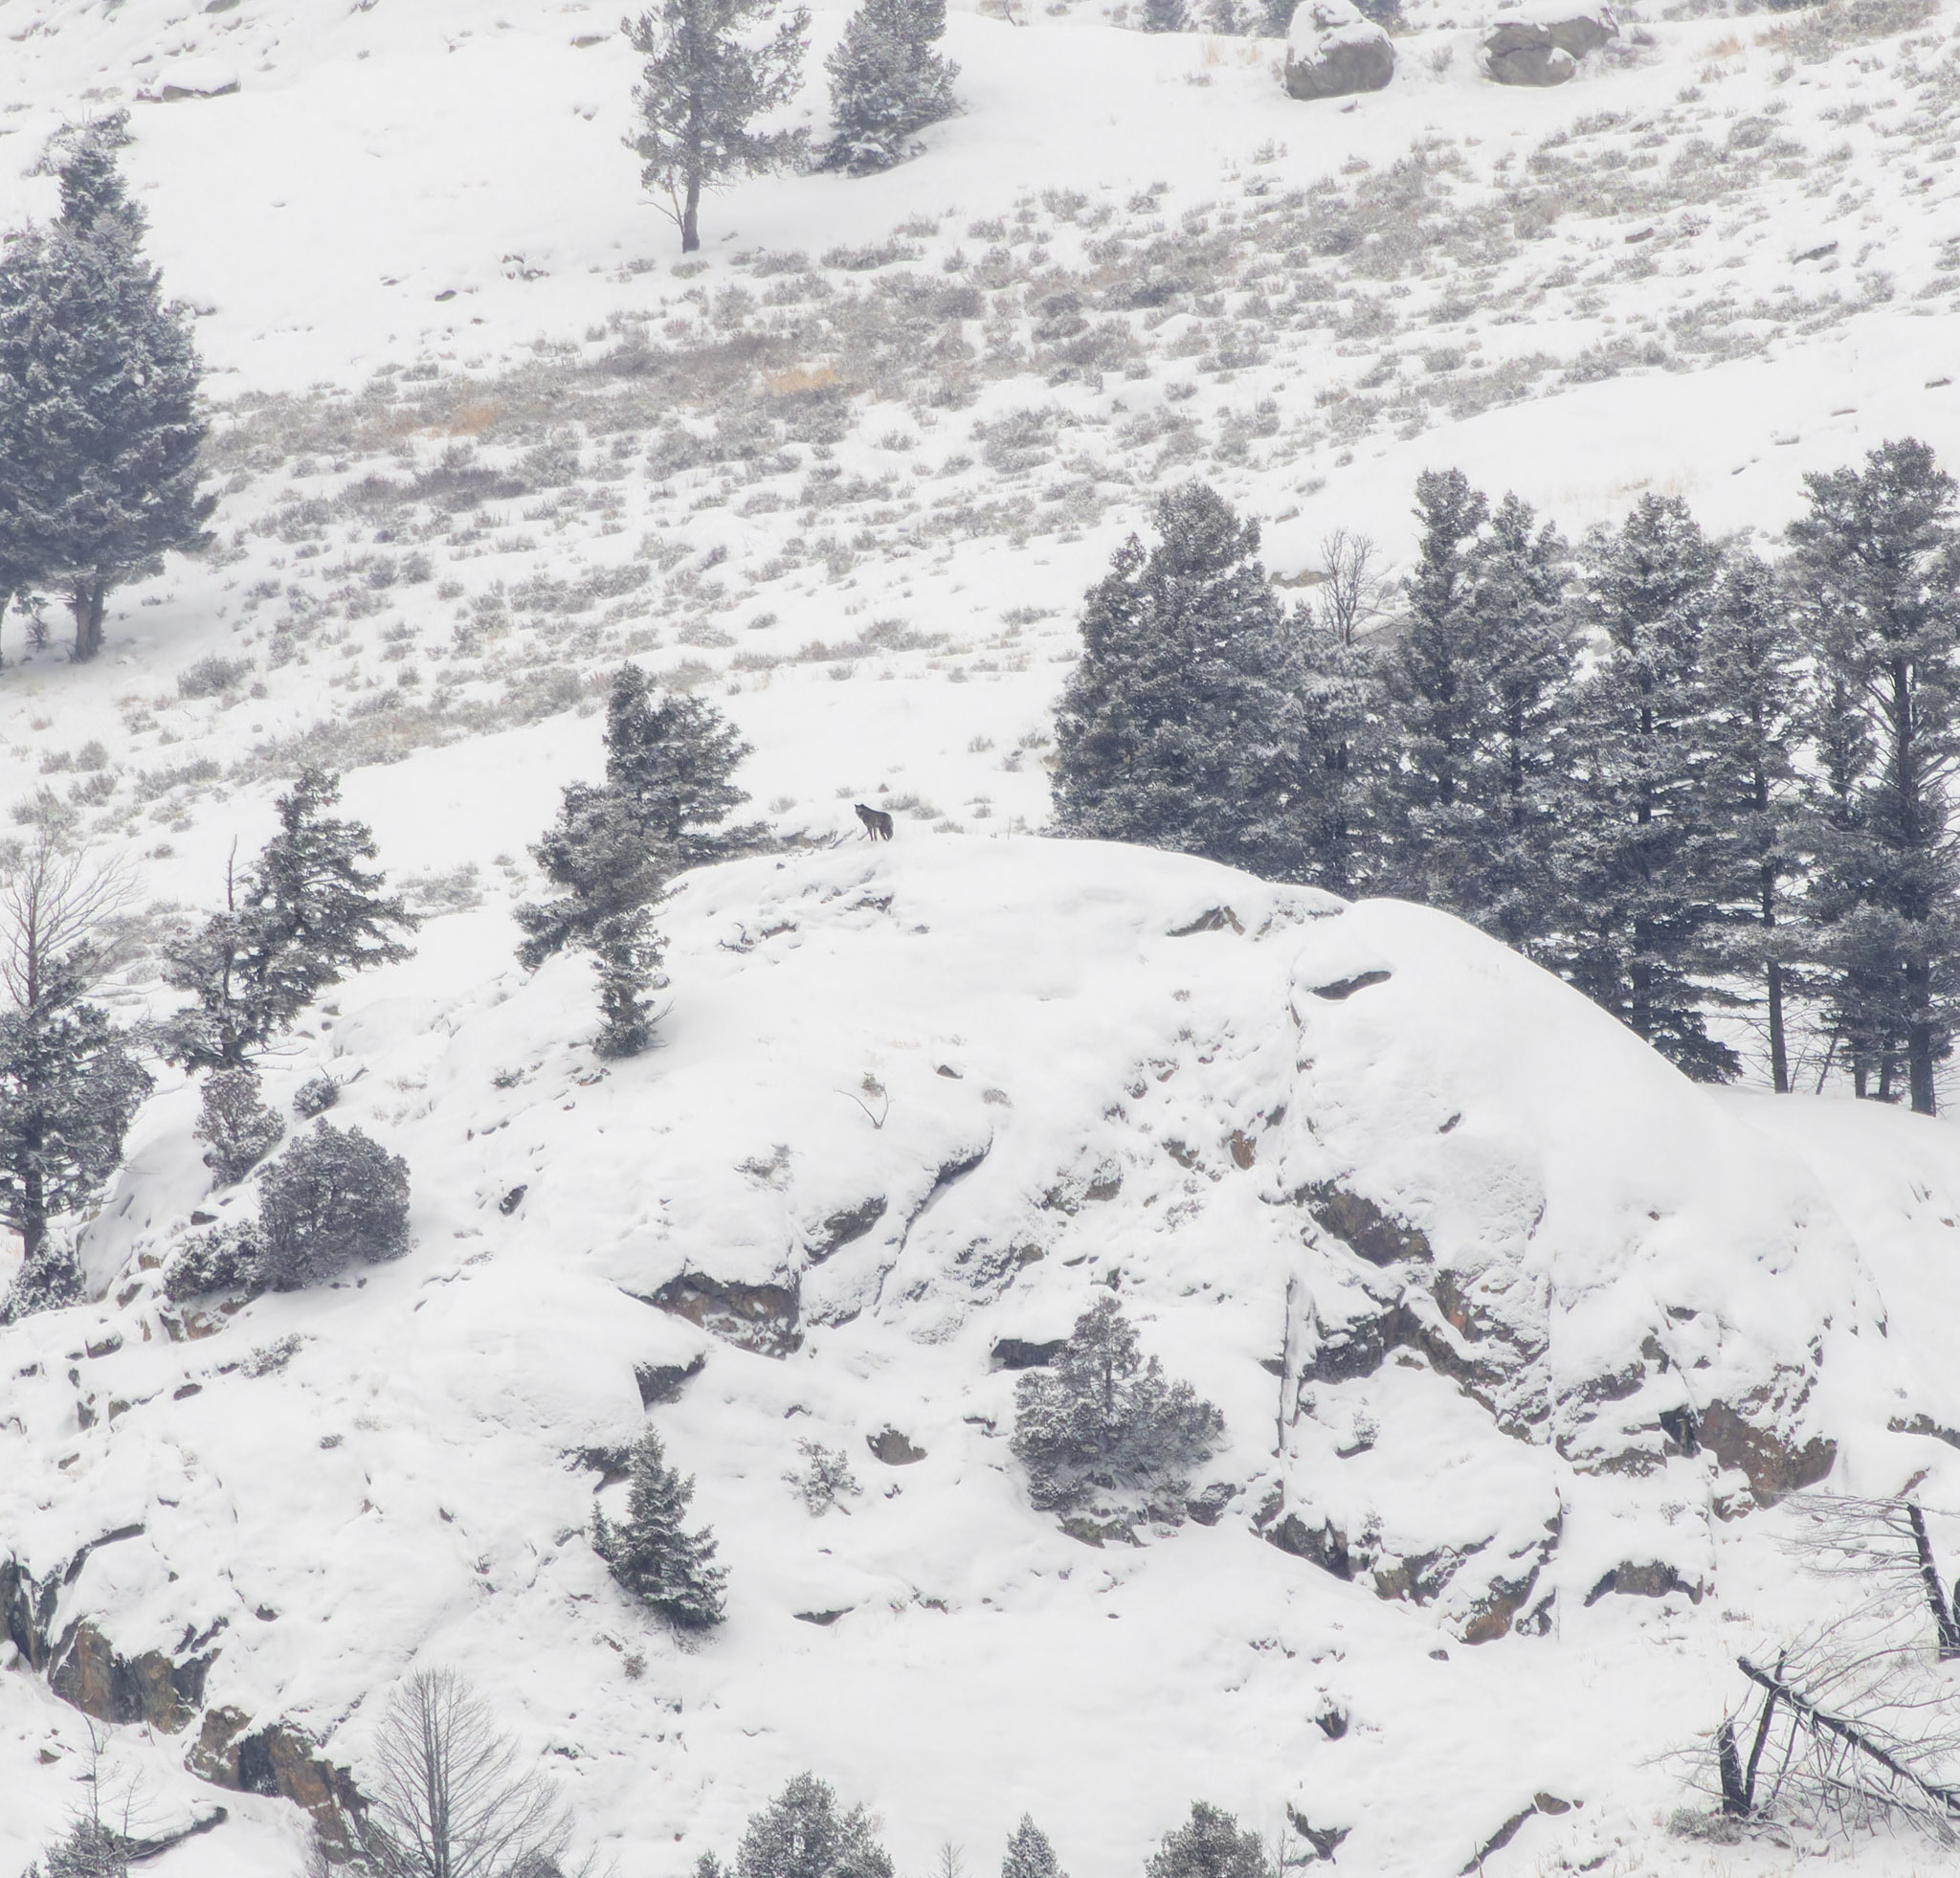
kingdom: Animalia
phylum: Chordata
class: Mammalia
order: Carnivora
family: Canidae
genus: Canis
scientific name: Canis lupus
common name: Gray wolf
